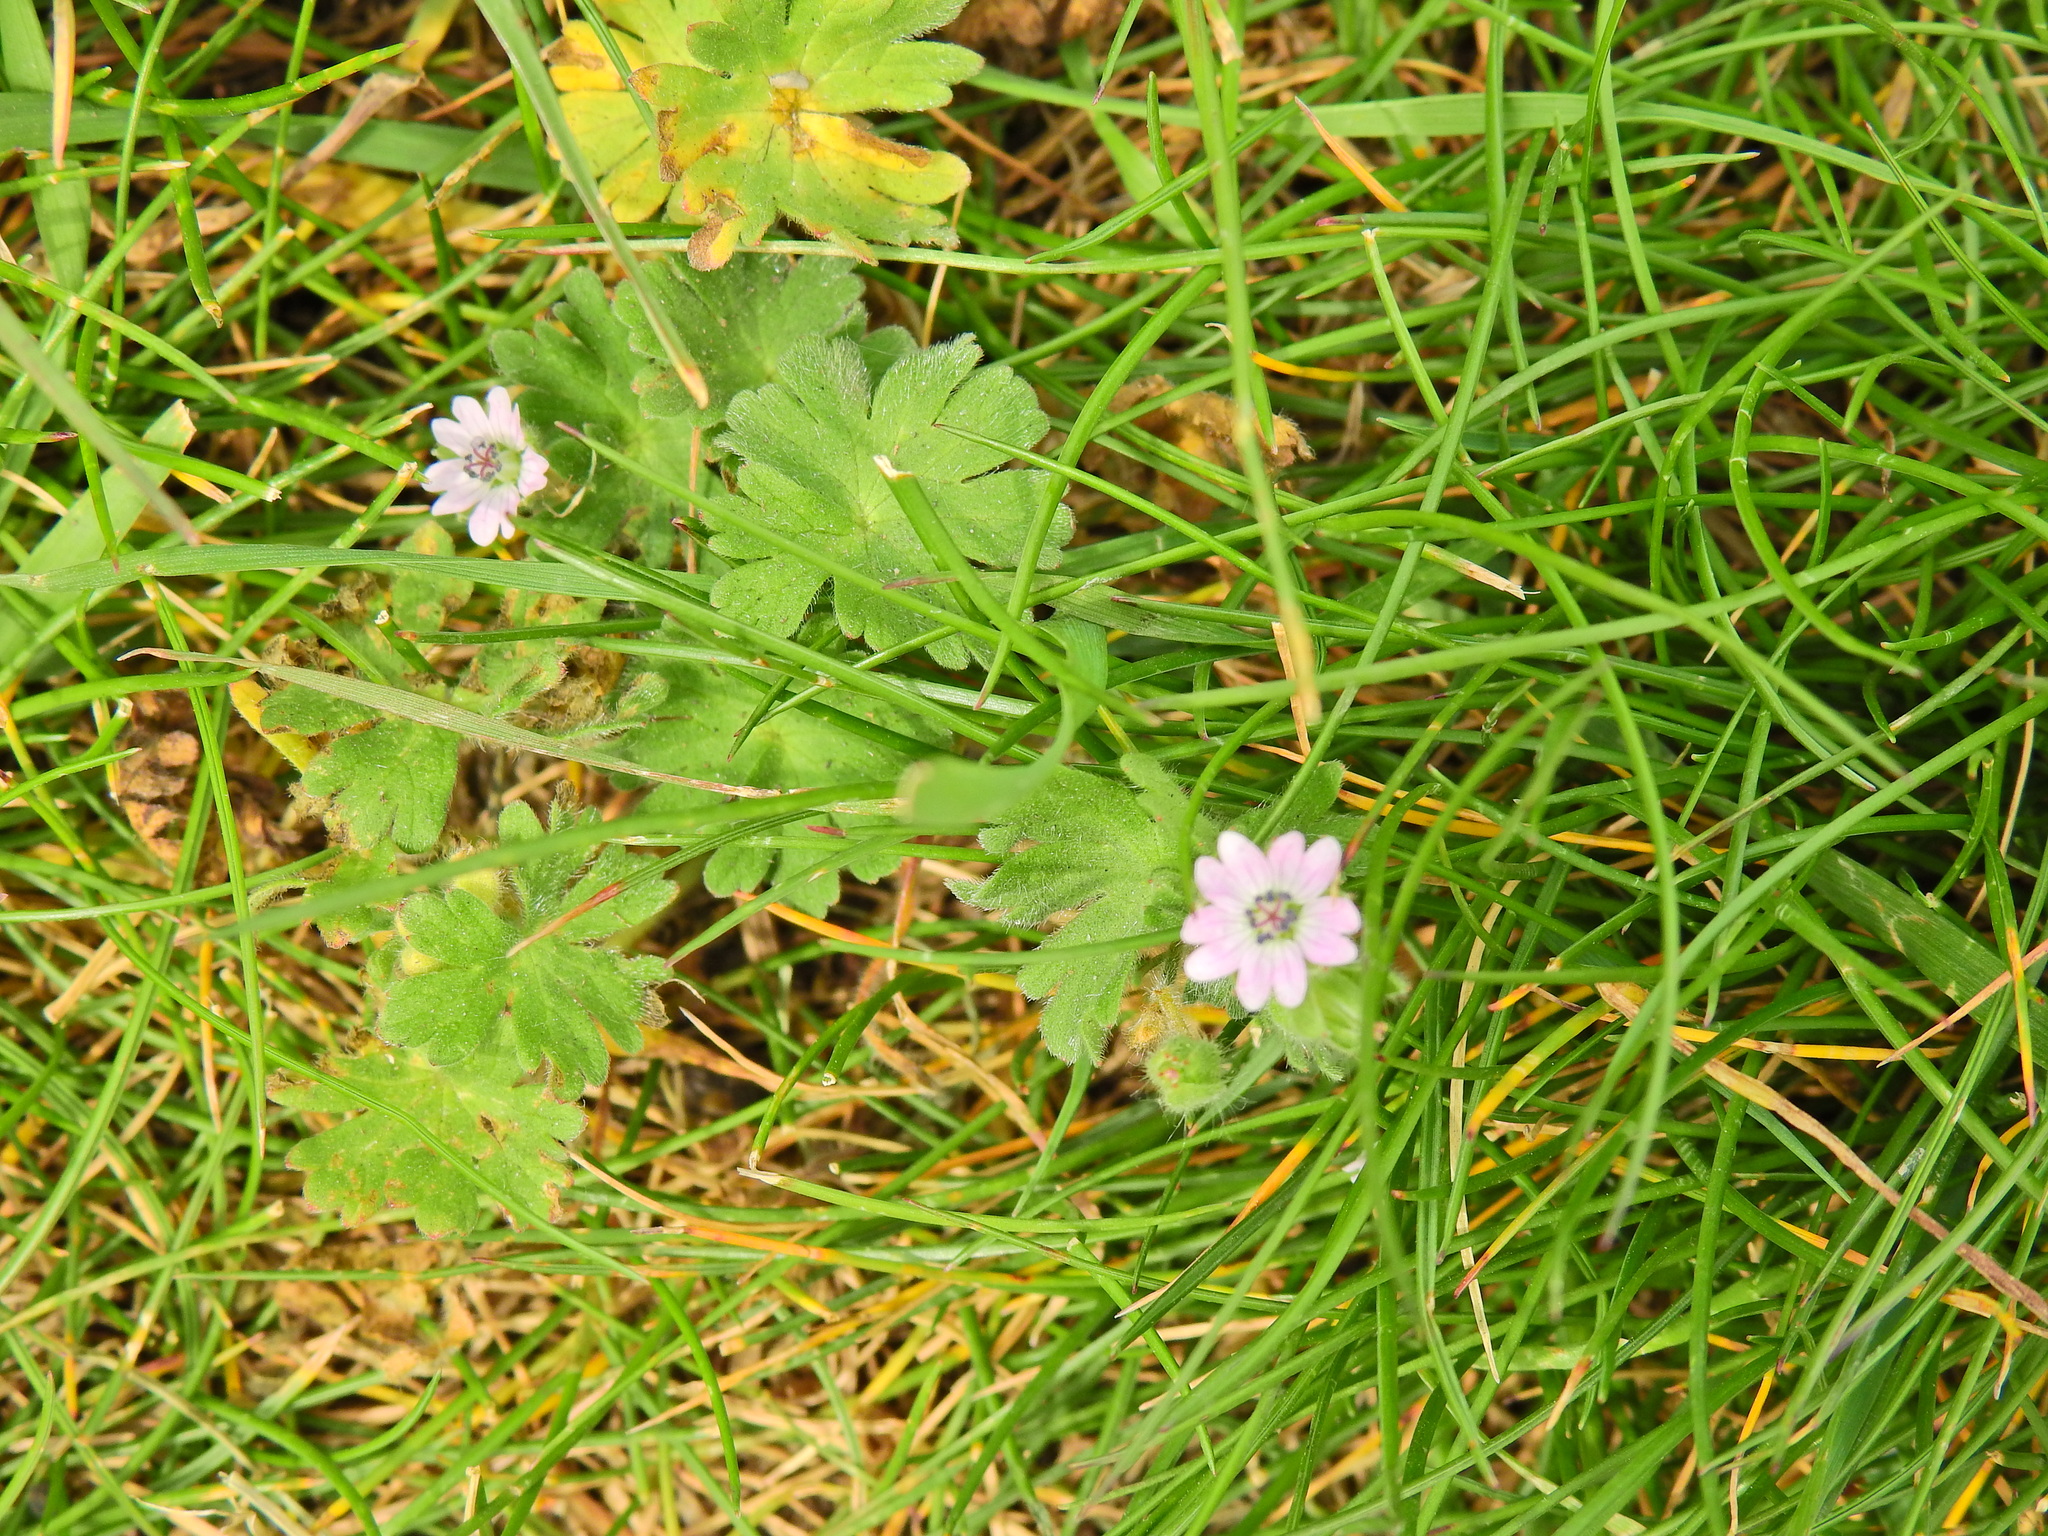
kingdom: Plantae
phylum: Tracheophyta
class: Magnoliopsida
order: Geraniales
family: Geraniaceae
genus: Geranium
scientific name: Geranium molle
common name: Dove's-foot crane's-bill
